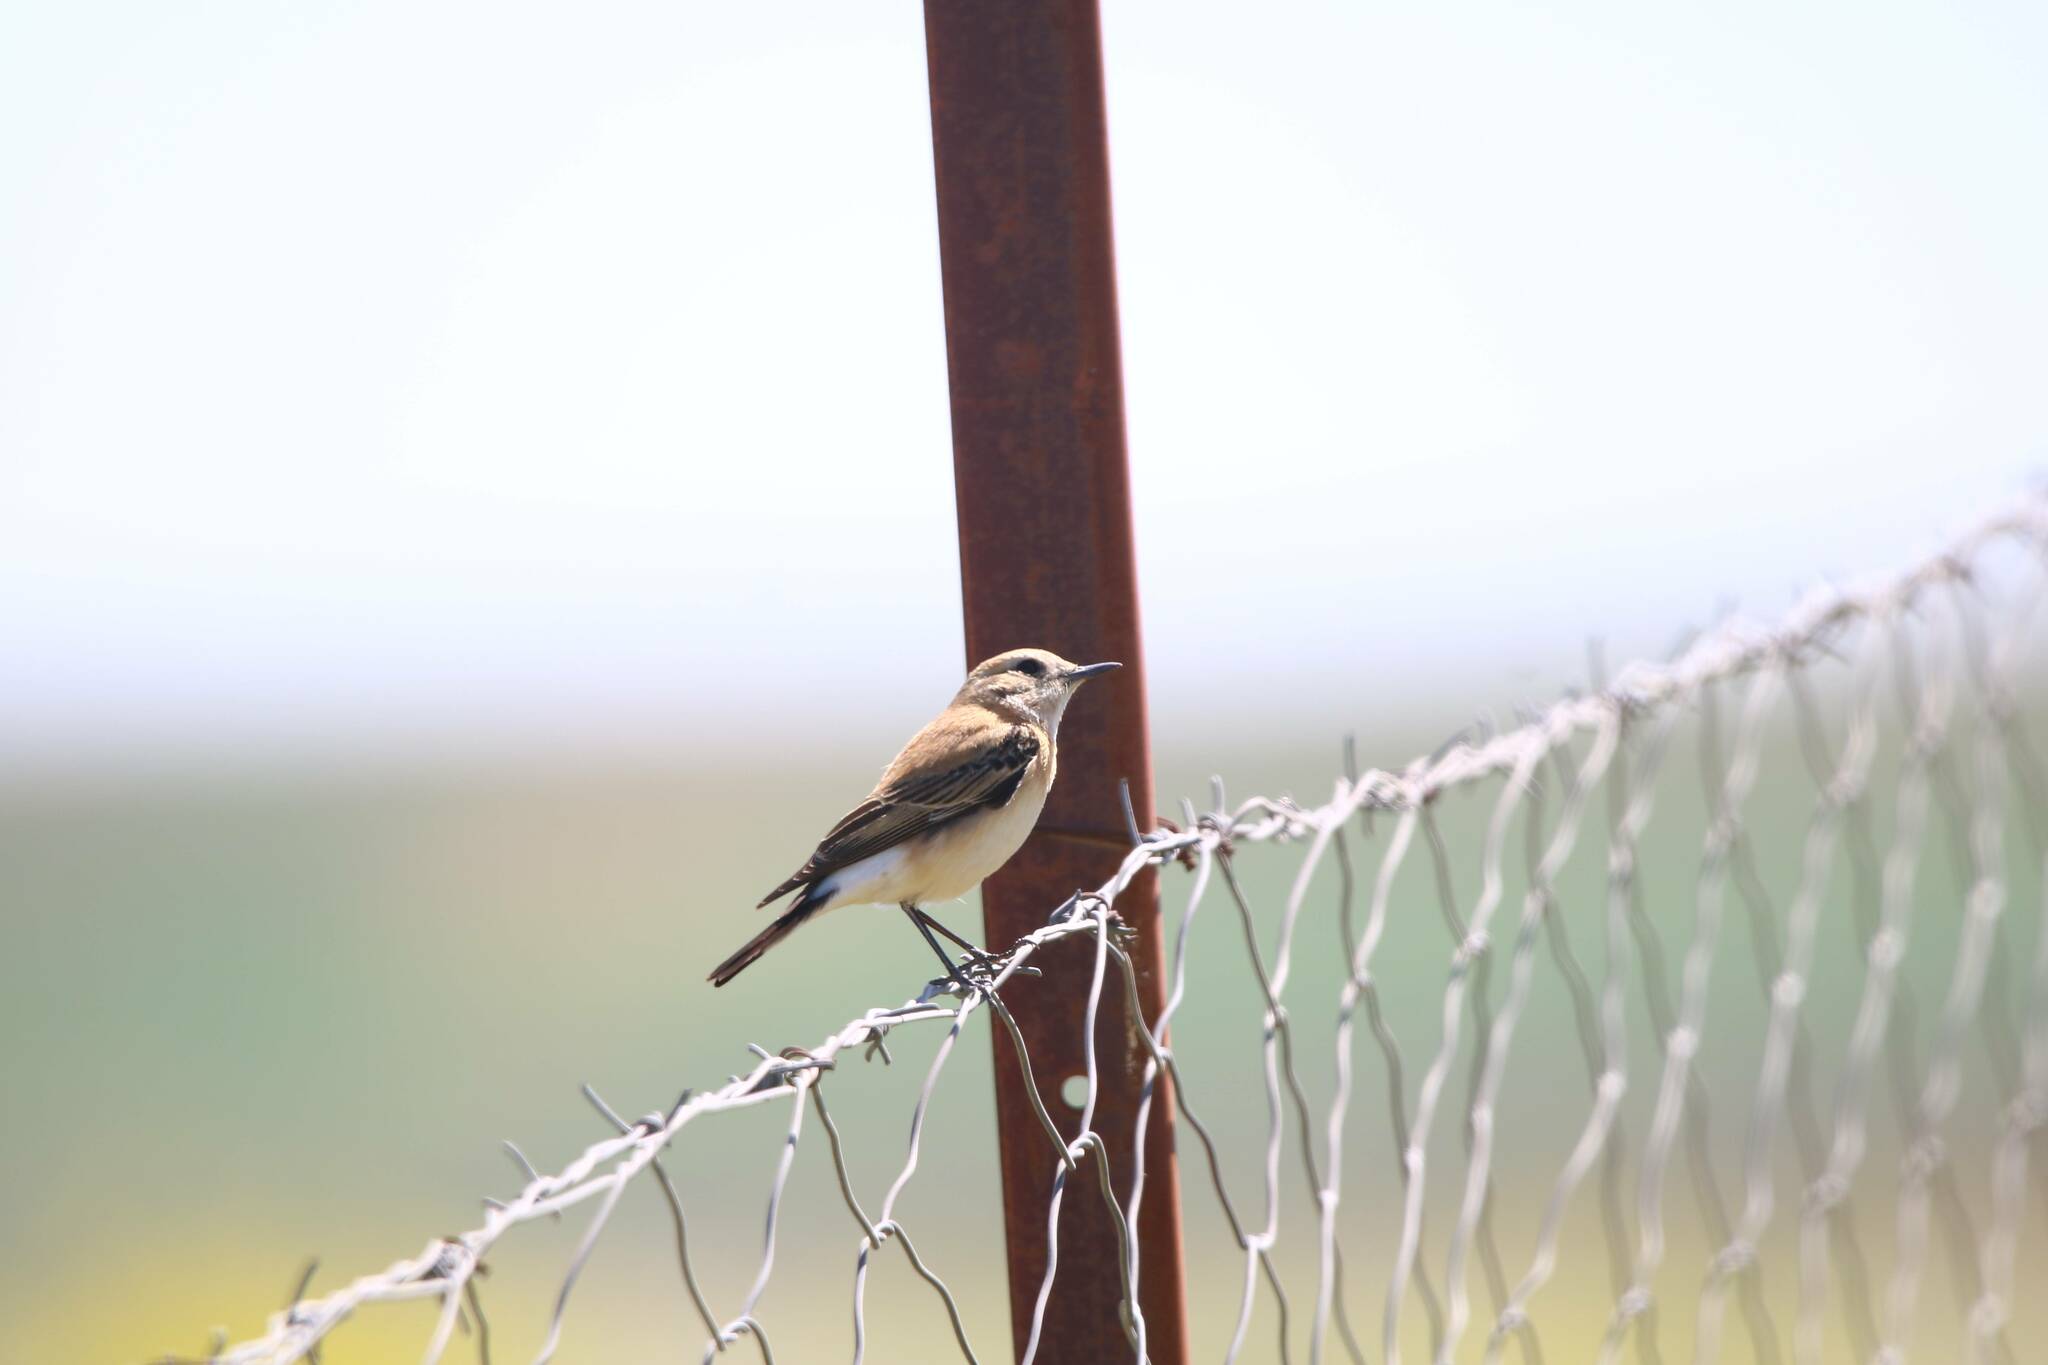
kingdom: Animalia
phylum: Chordata
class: Aves
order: Passeriformes
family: Muscicapidae
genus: Oenanthe
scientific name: Oenanthe hispanica
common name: Black-eared wheatear
